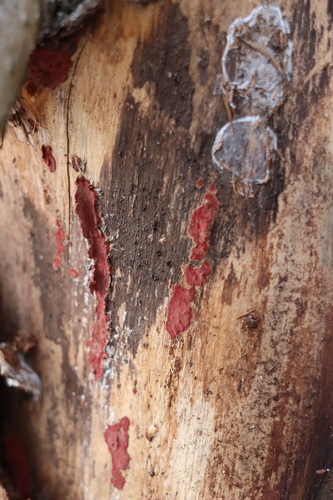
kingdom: Fungi
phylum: Basidiomycota
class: Agaricomycetes
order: Hymenochaetales
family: Hymenochaetaceae
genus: Hymenochaete
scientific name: Hymenochaete cruenta
